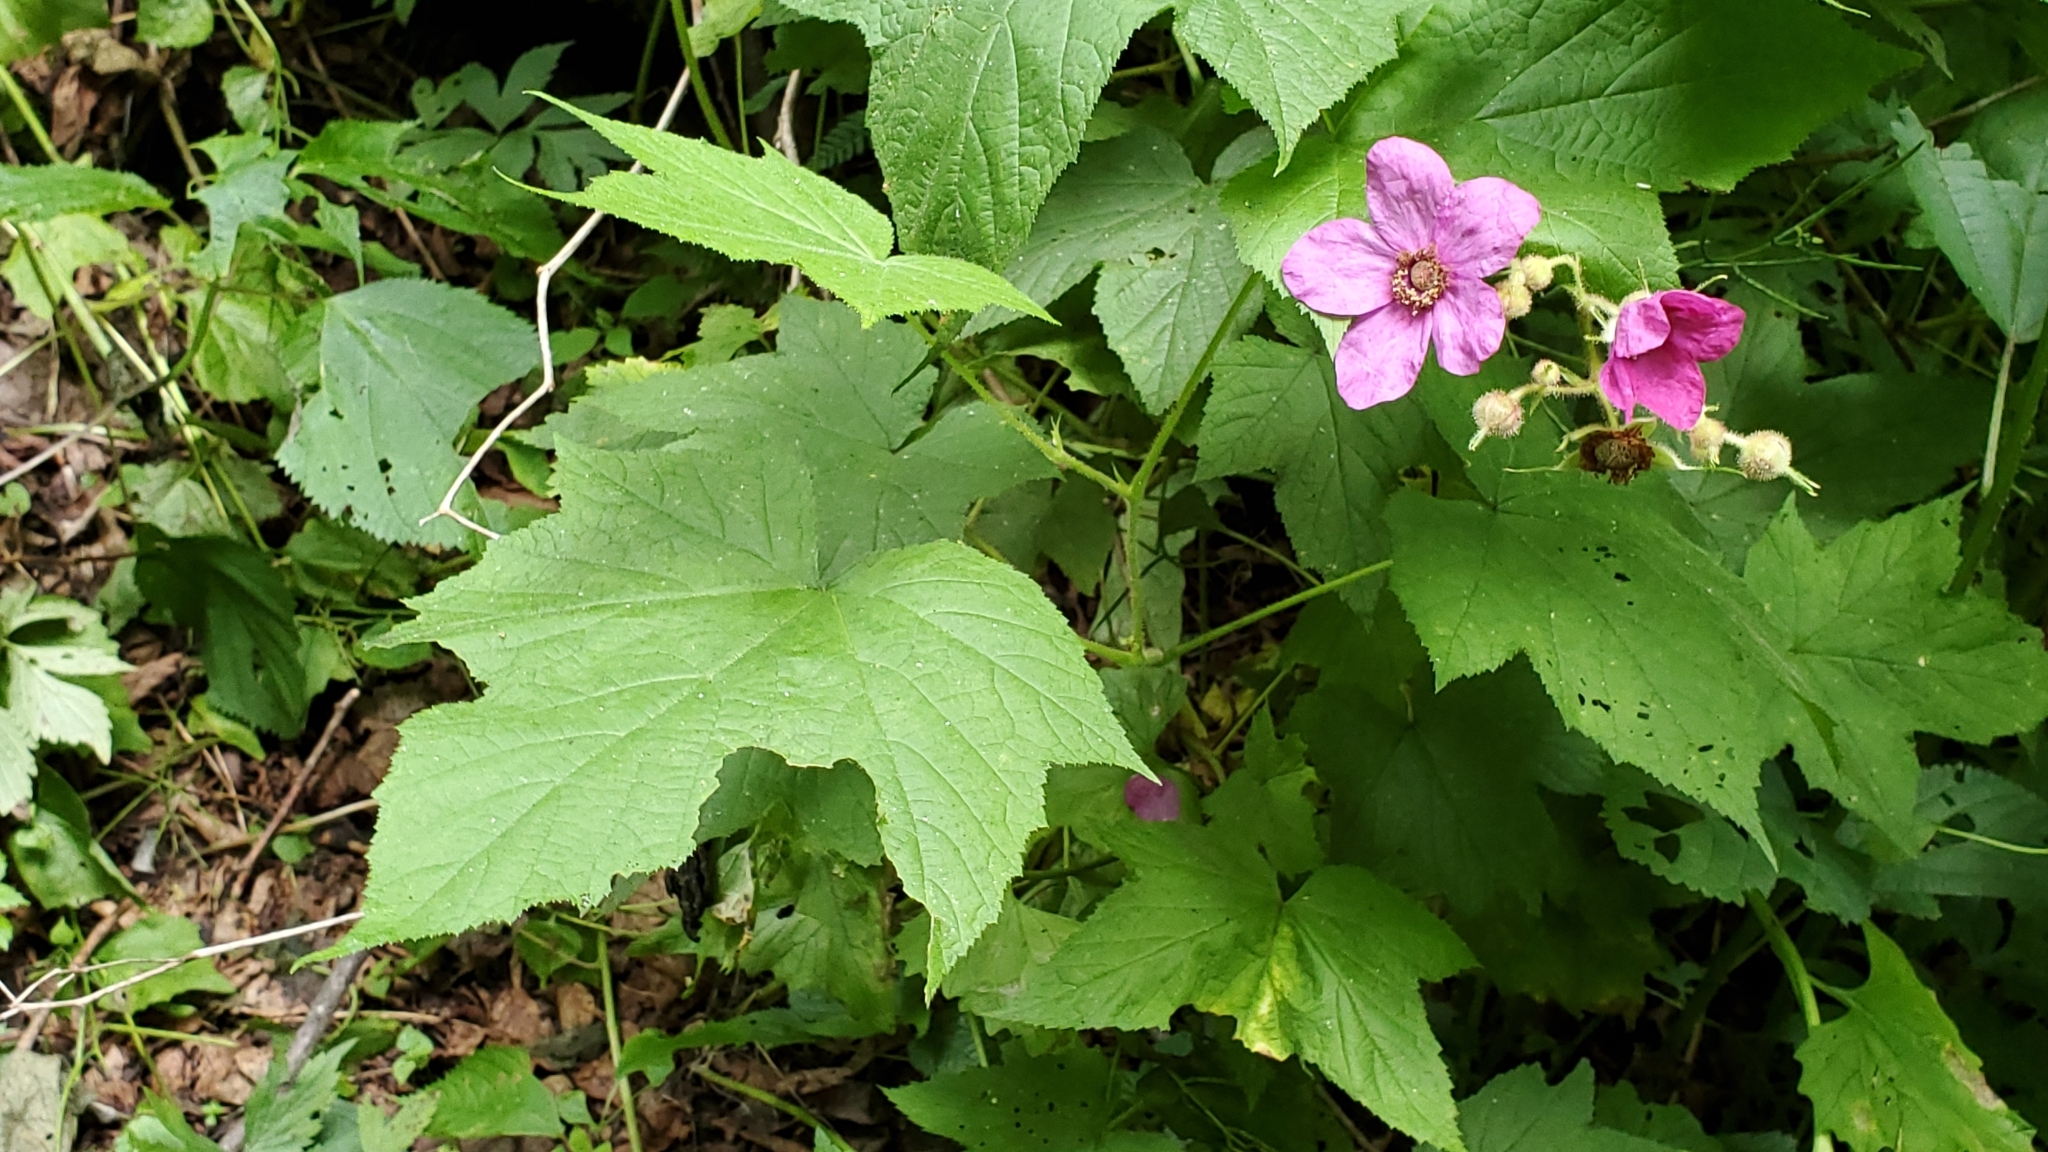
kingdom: Plantae
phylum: Tracheophyta
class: Magnoliopsida
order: Rosales
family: Rosaceae
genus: Rubus
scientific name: Rubus odoratus
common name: Purple-flowered raspberry
